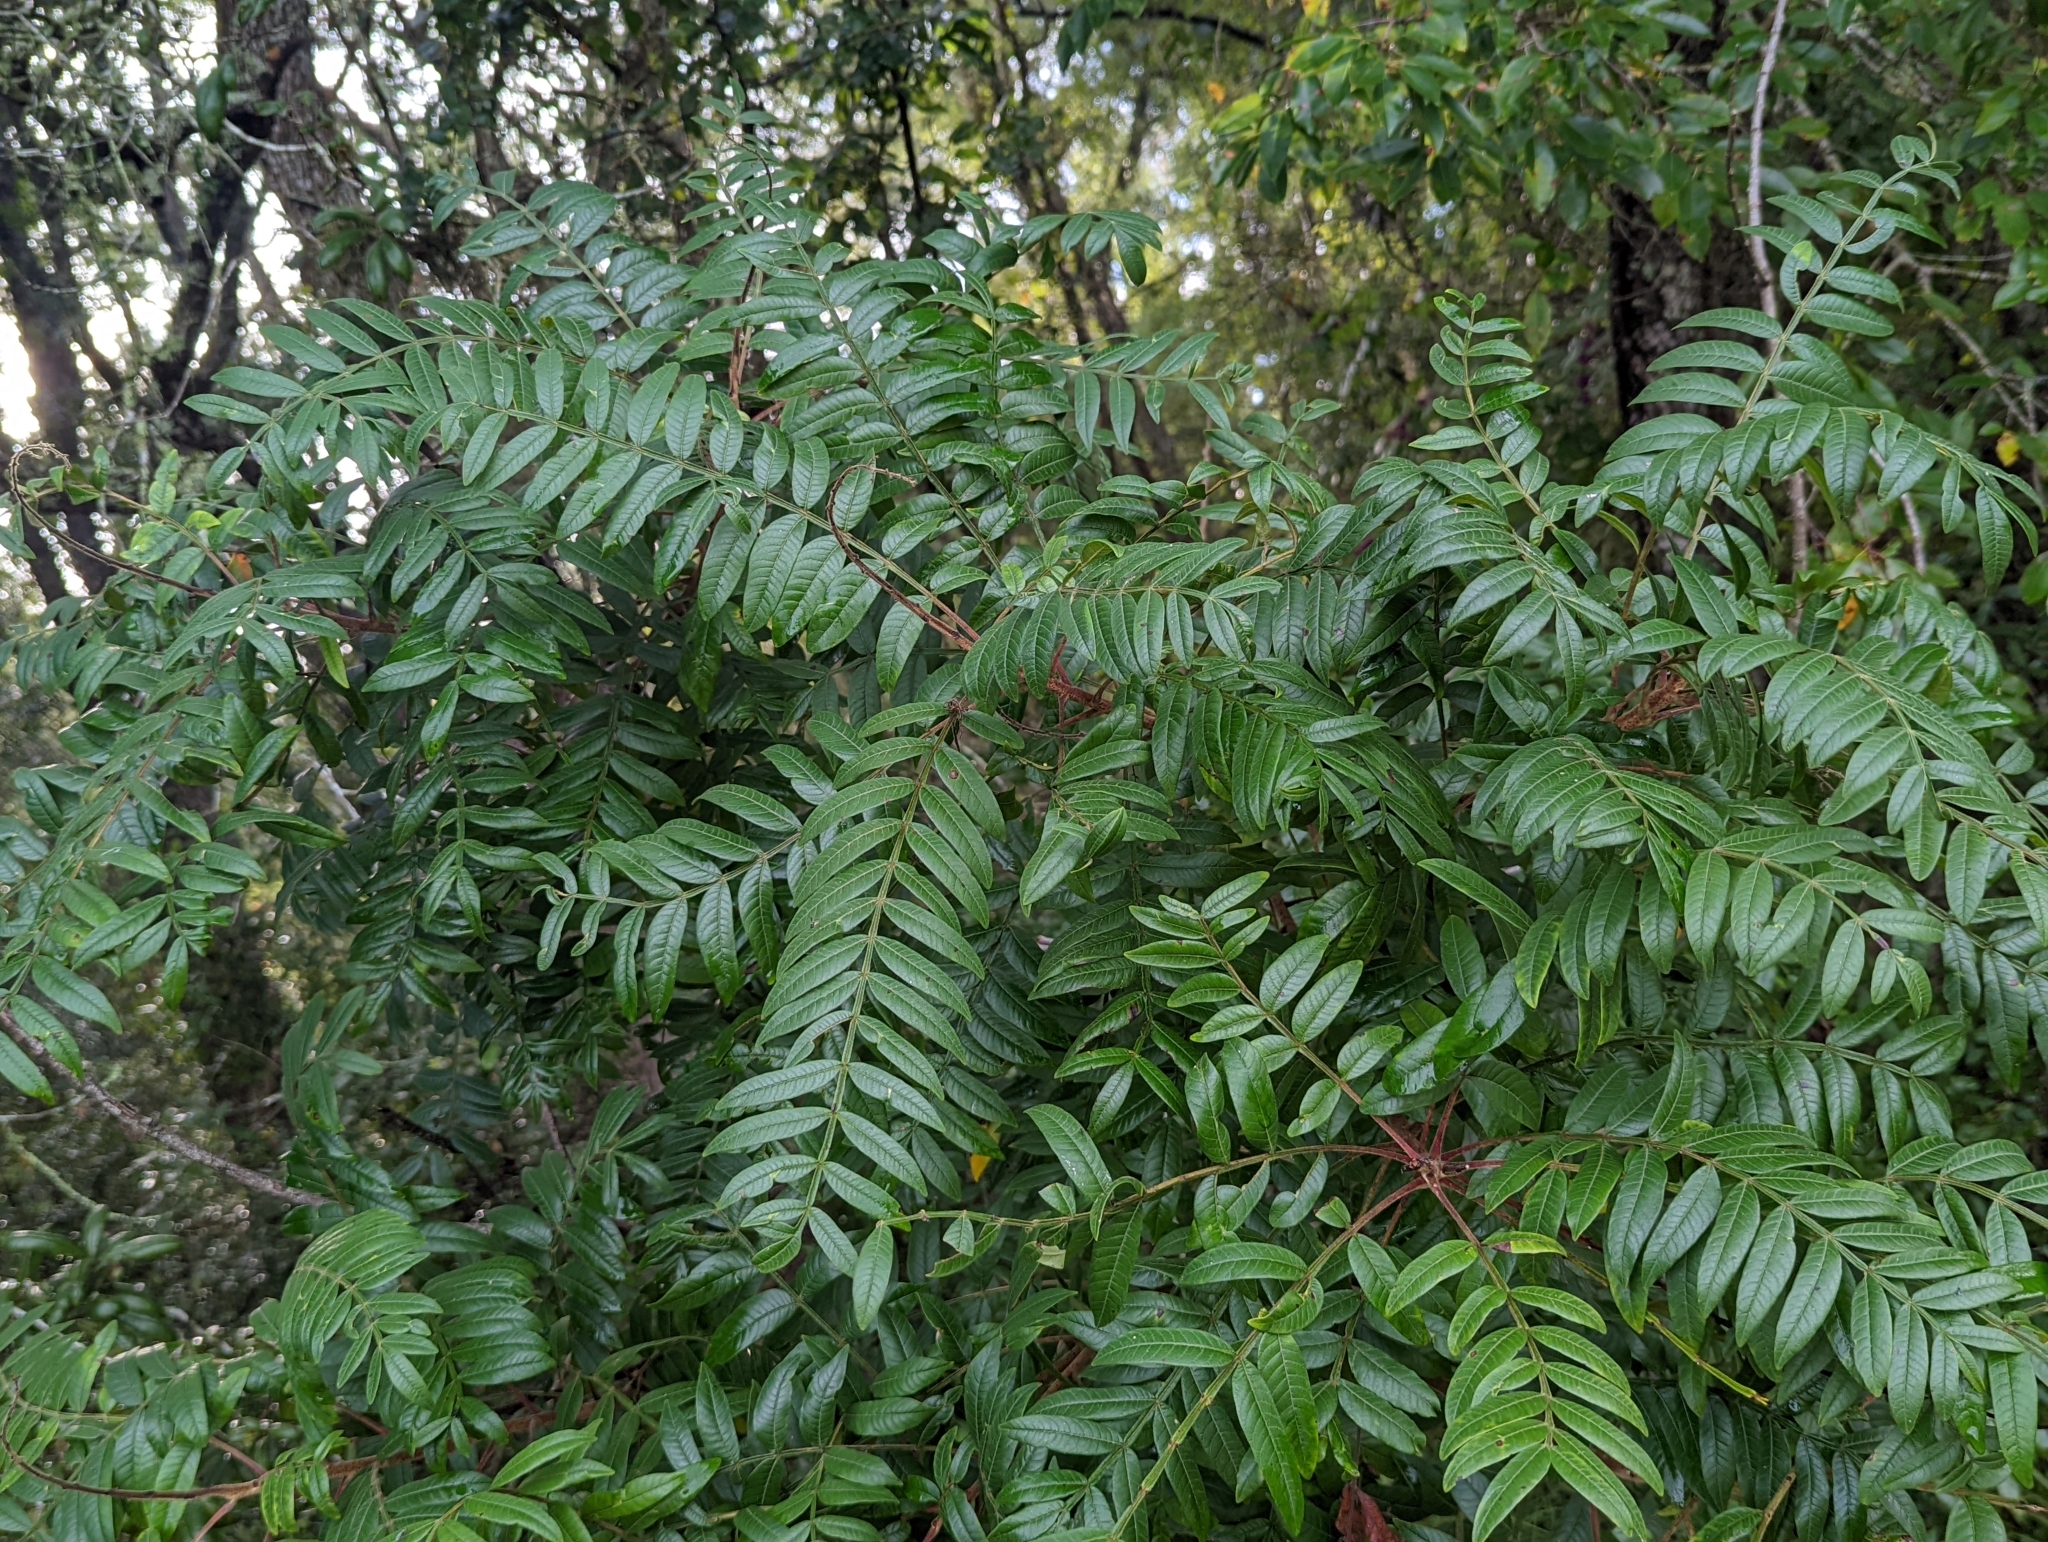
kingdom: Plantae
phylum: Tracheophyta
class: Magnoliopsida
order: Sapindales
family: Anacardiaceae
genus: Rhus
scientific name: Rhus copallina
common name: Shining sumac
